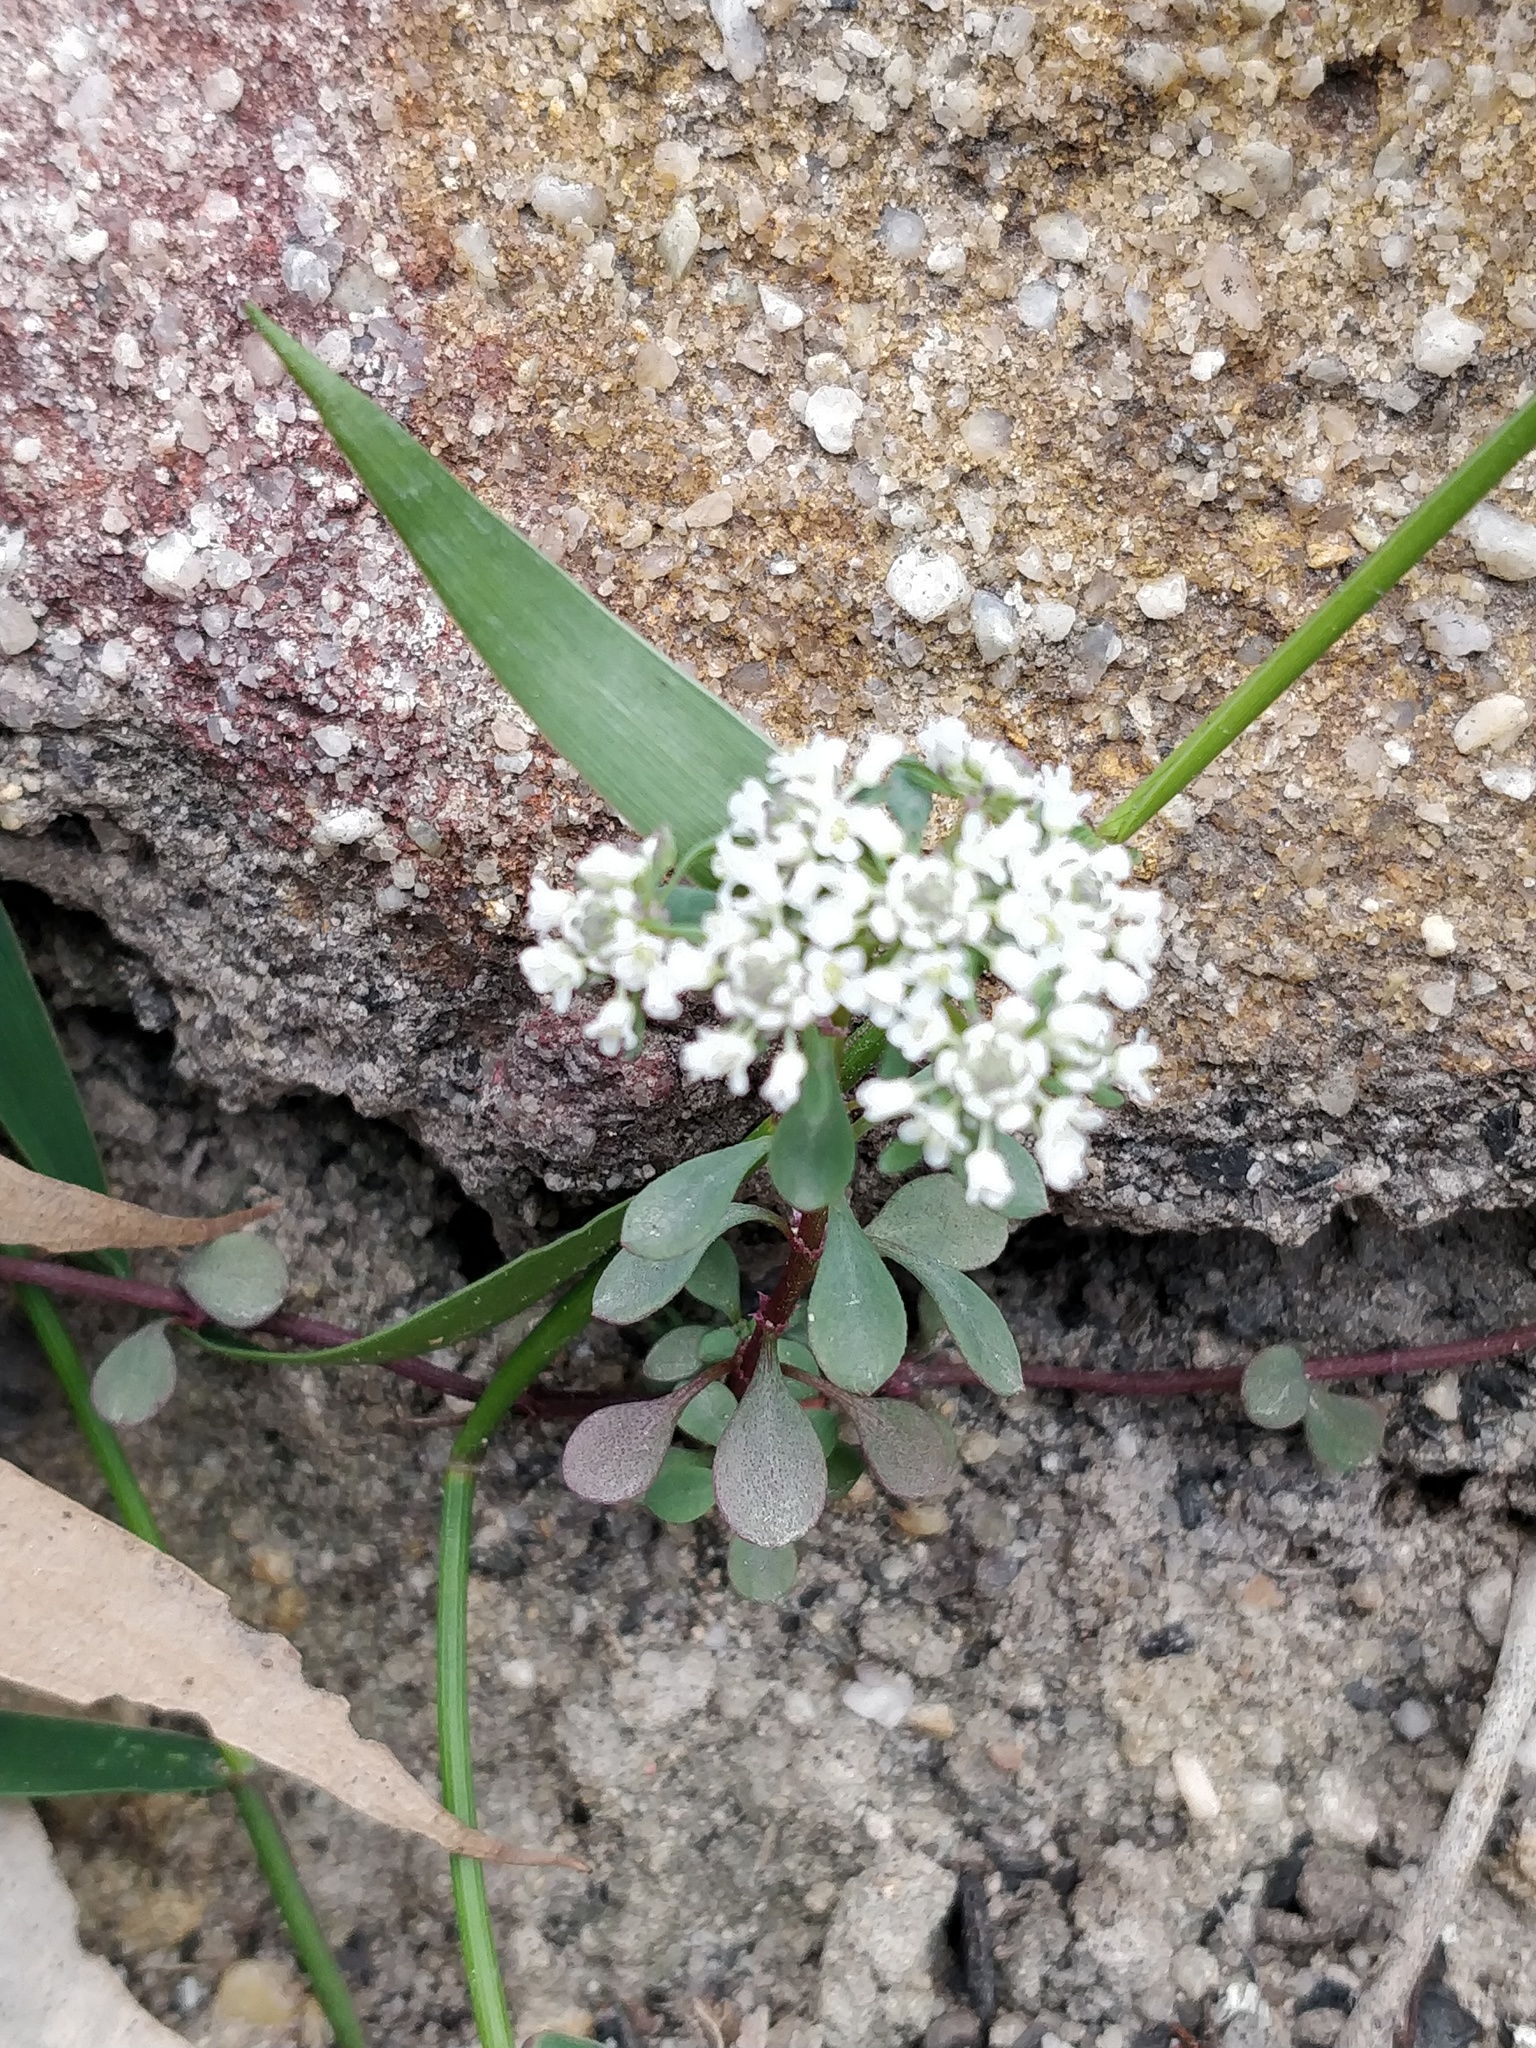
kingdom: Plantae
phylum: Tracheophyta
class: Magnoliopsida
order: Malpighiales
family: Phyllanthaceae
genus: Poranthera
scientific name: Poranthera microphylla
